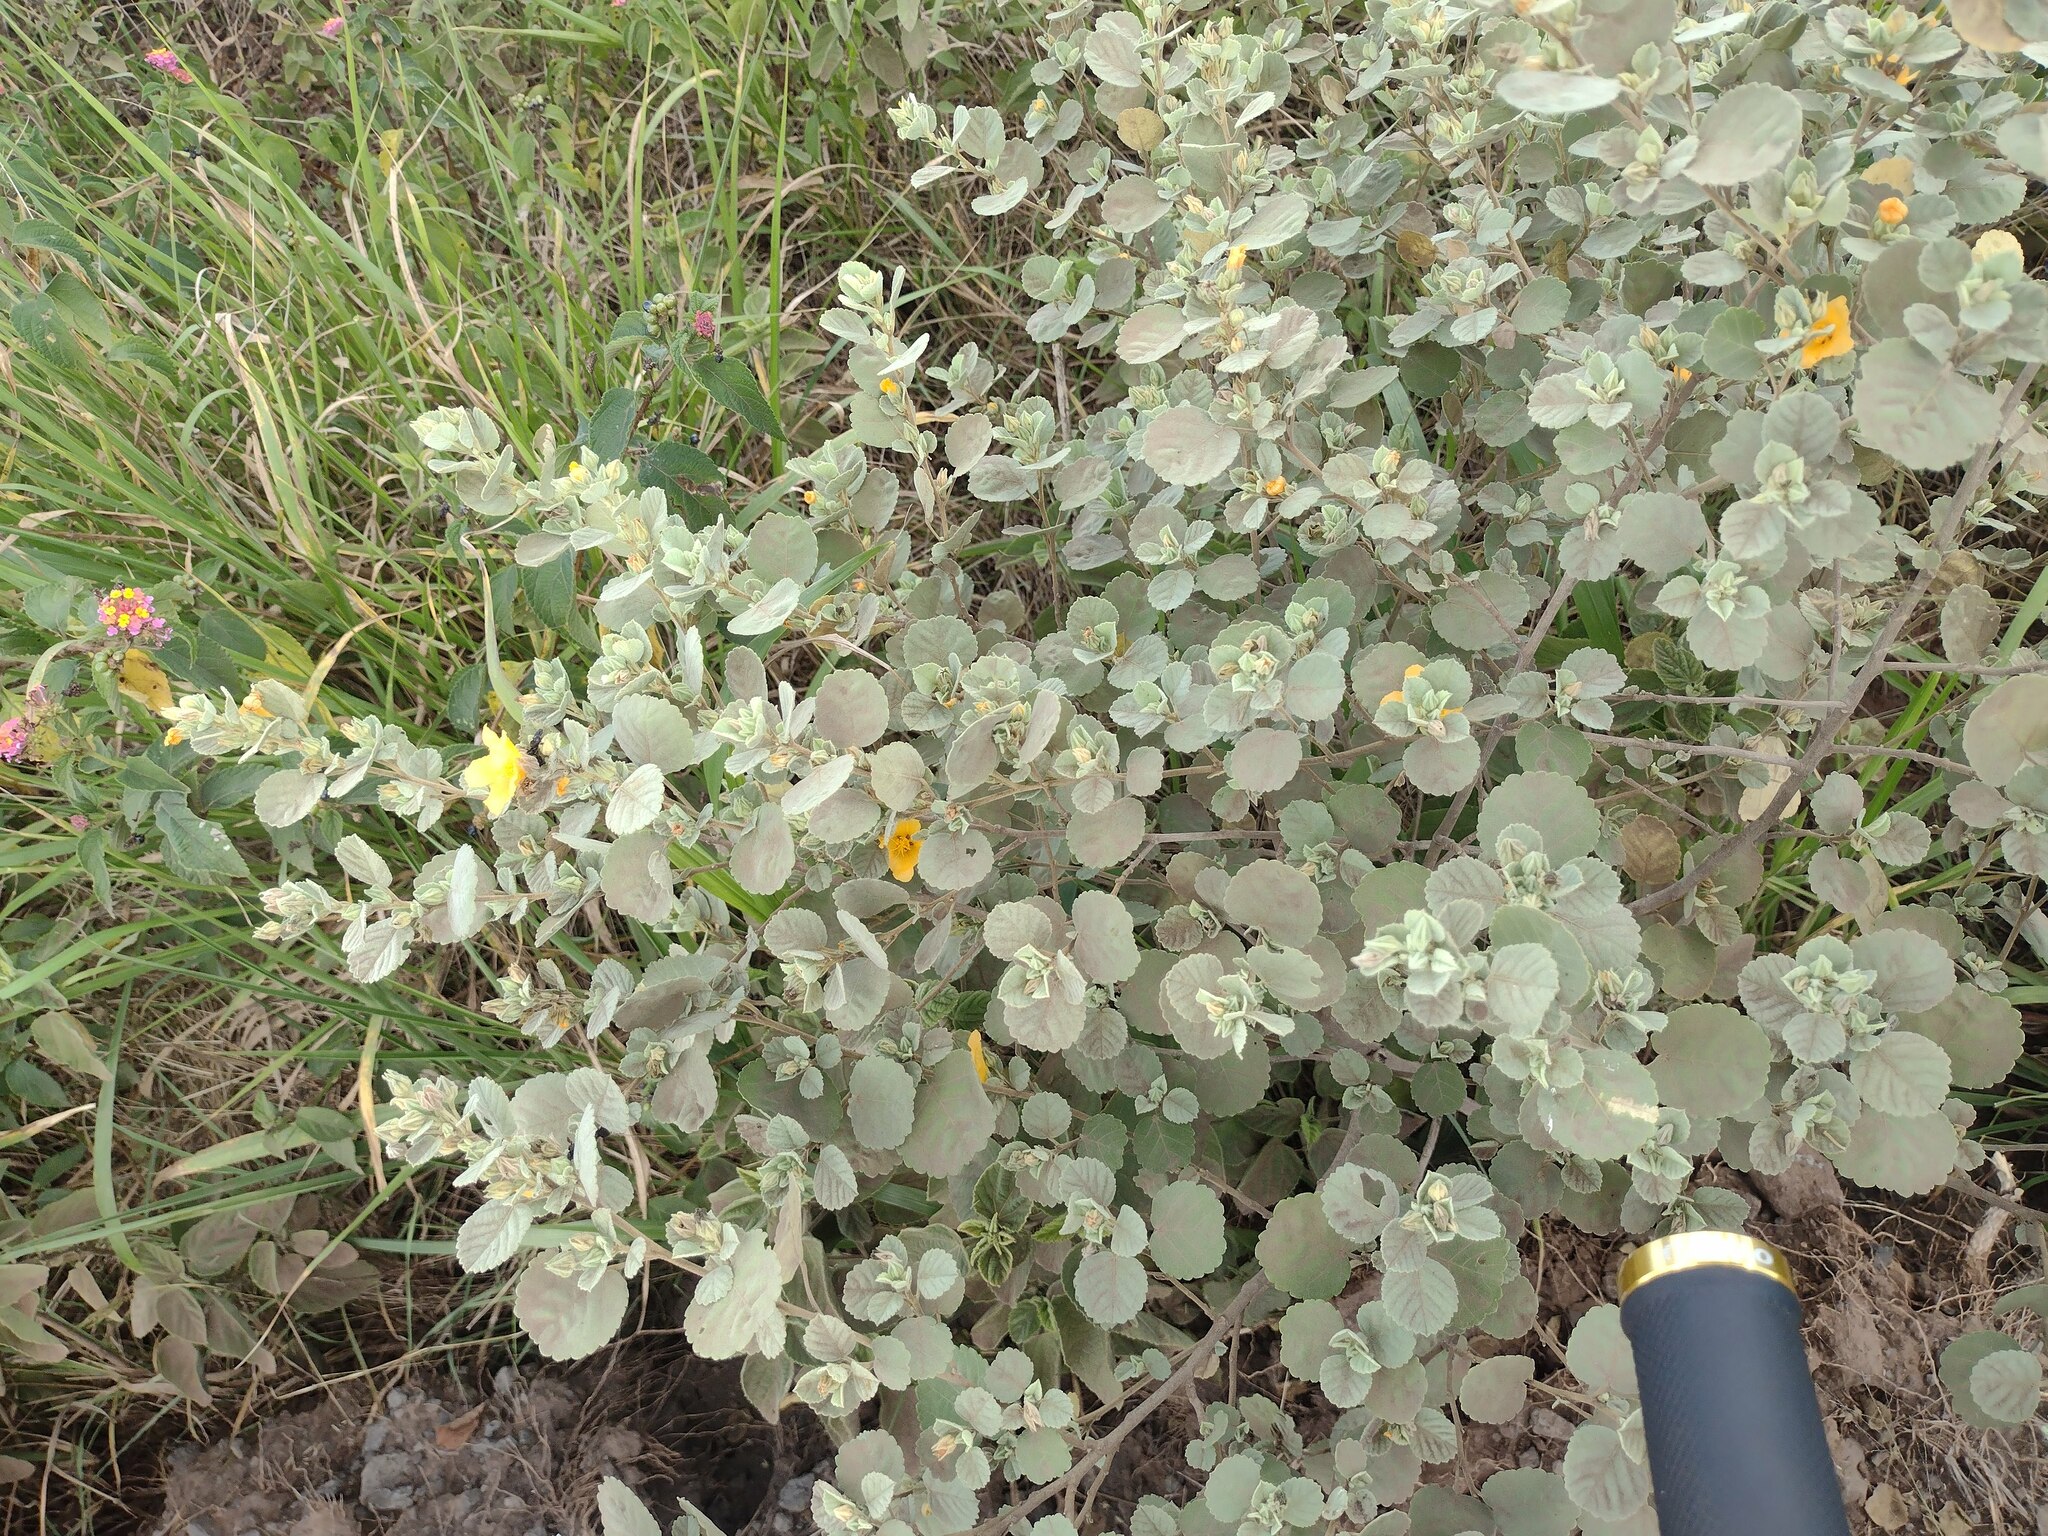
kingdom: Plantae
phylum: Tracheophyta
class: Magnoliopsida
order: Malvales
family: Malvaceae
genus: Sida
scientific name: Sida fallax
